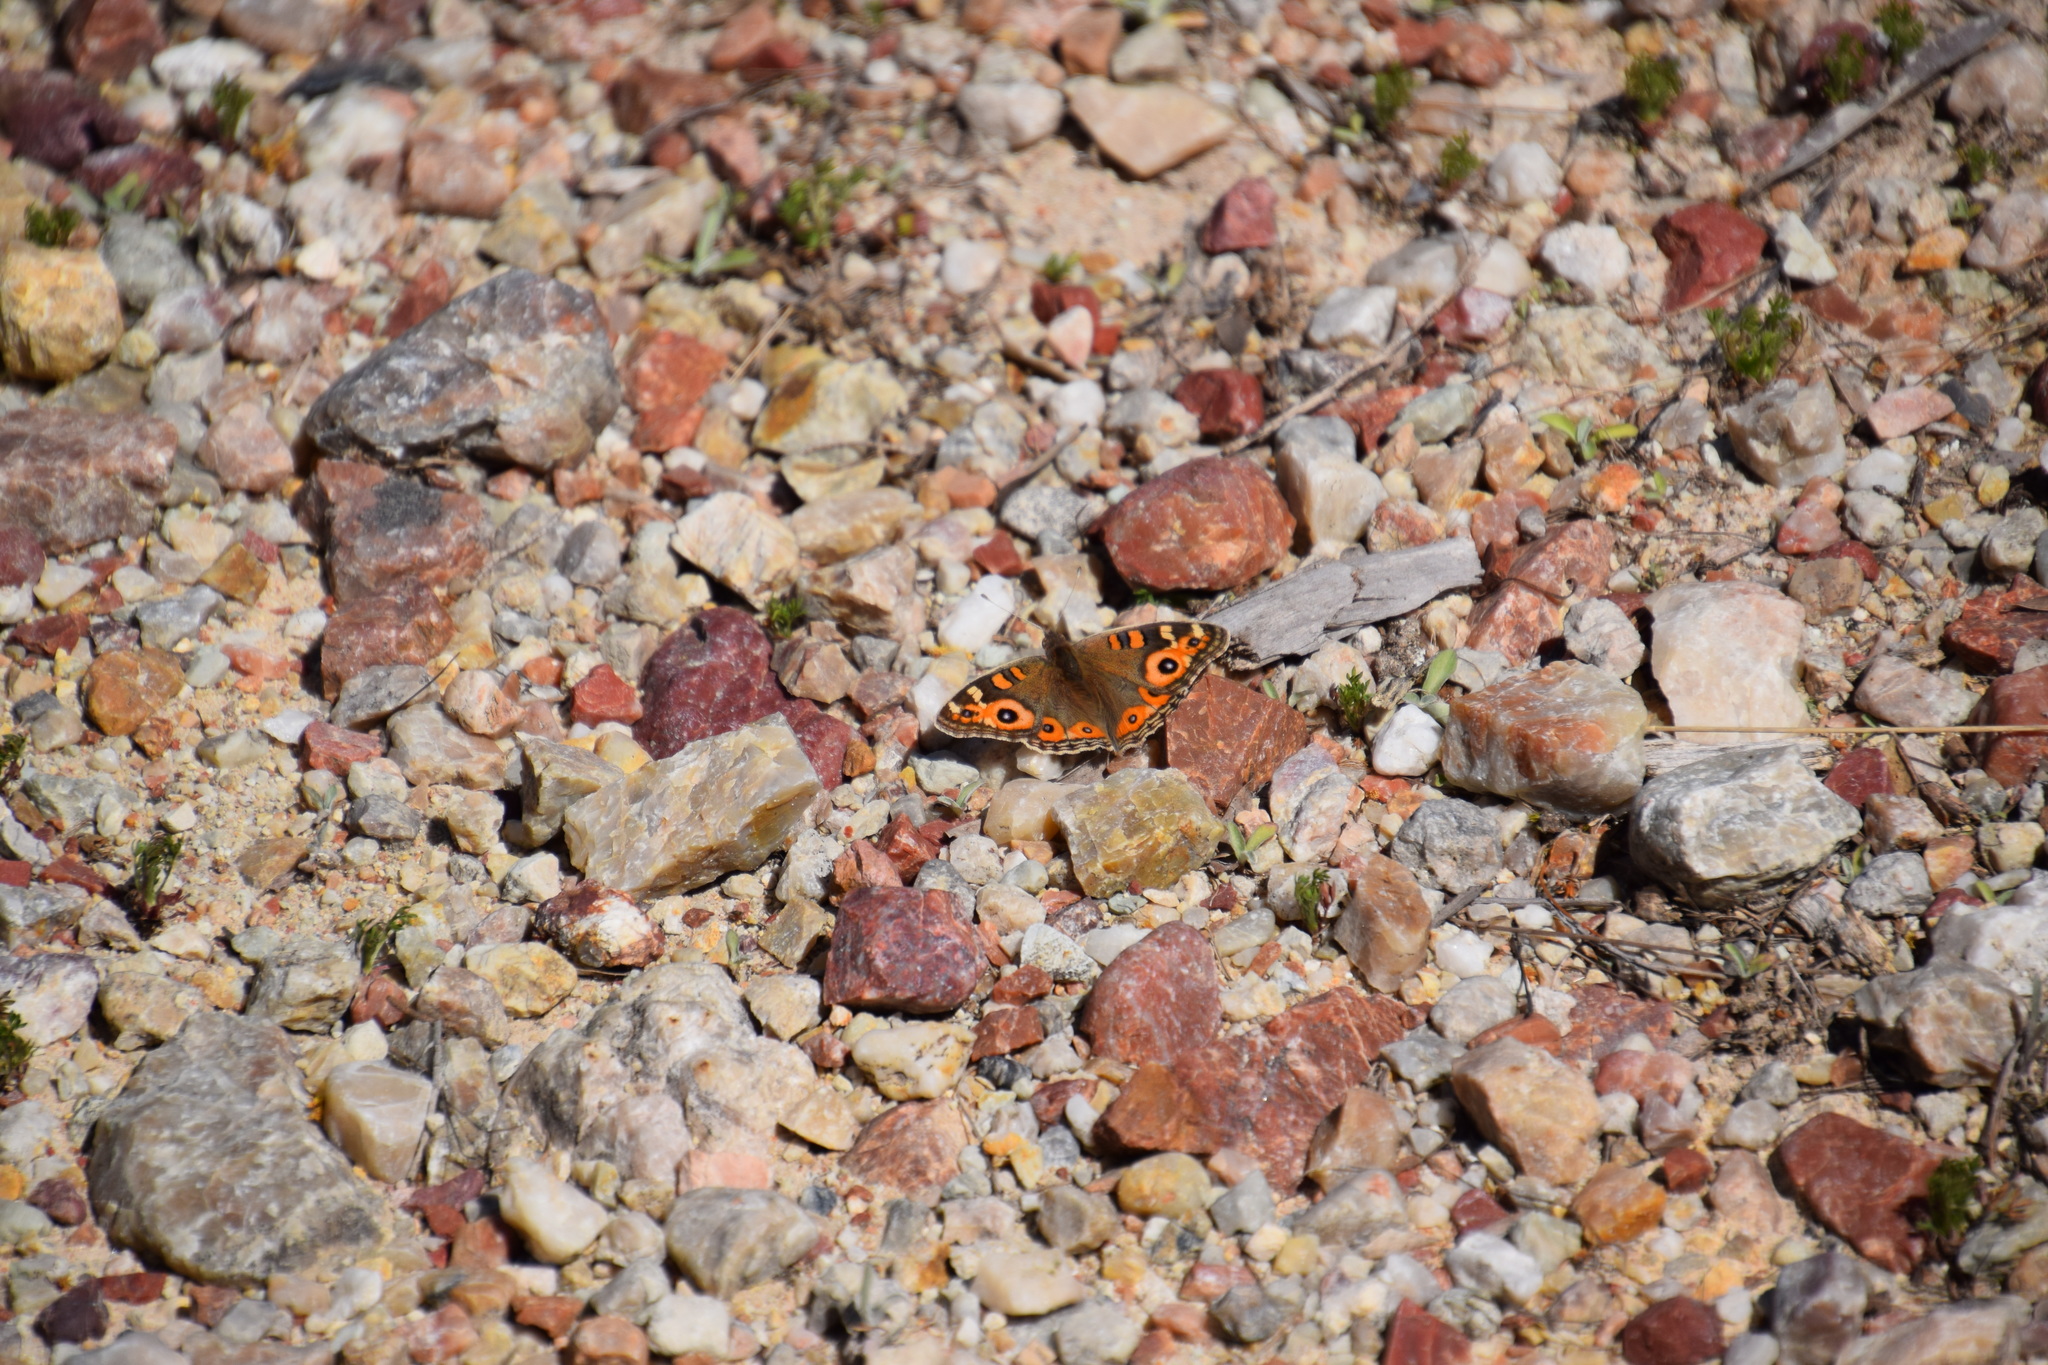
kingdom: Animalia
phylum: Arthropoda
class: Insecta
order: Lepidoptera
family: Nymphalidae
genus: Junonia
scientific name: Junonia villida
